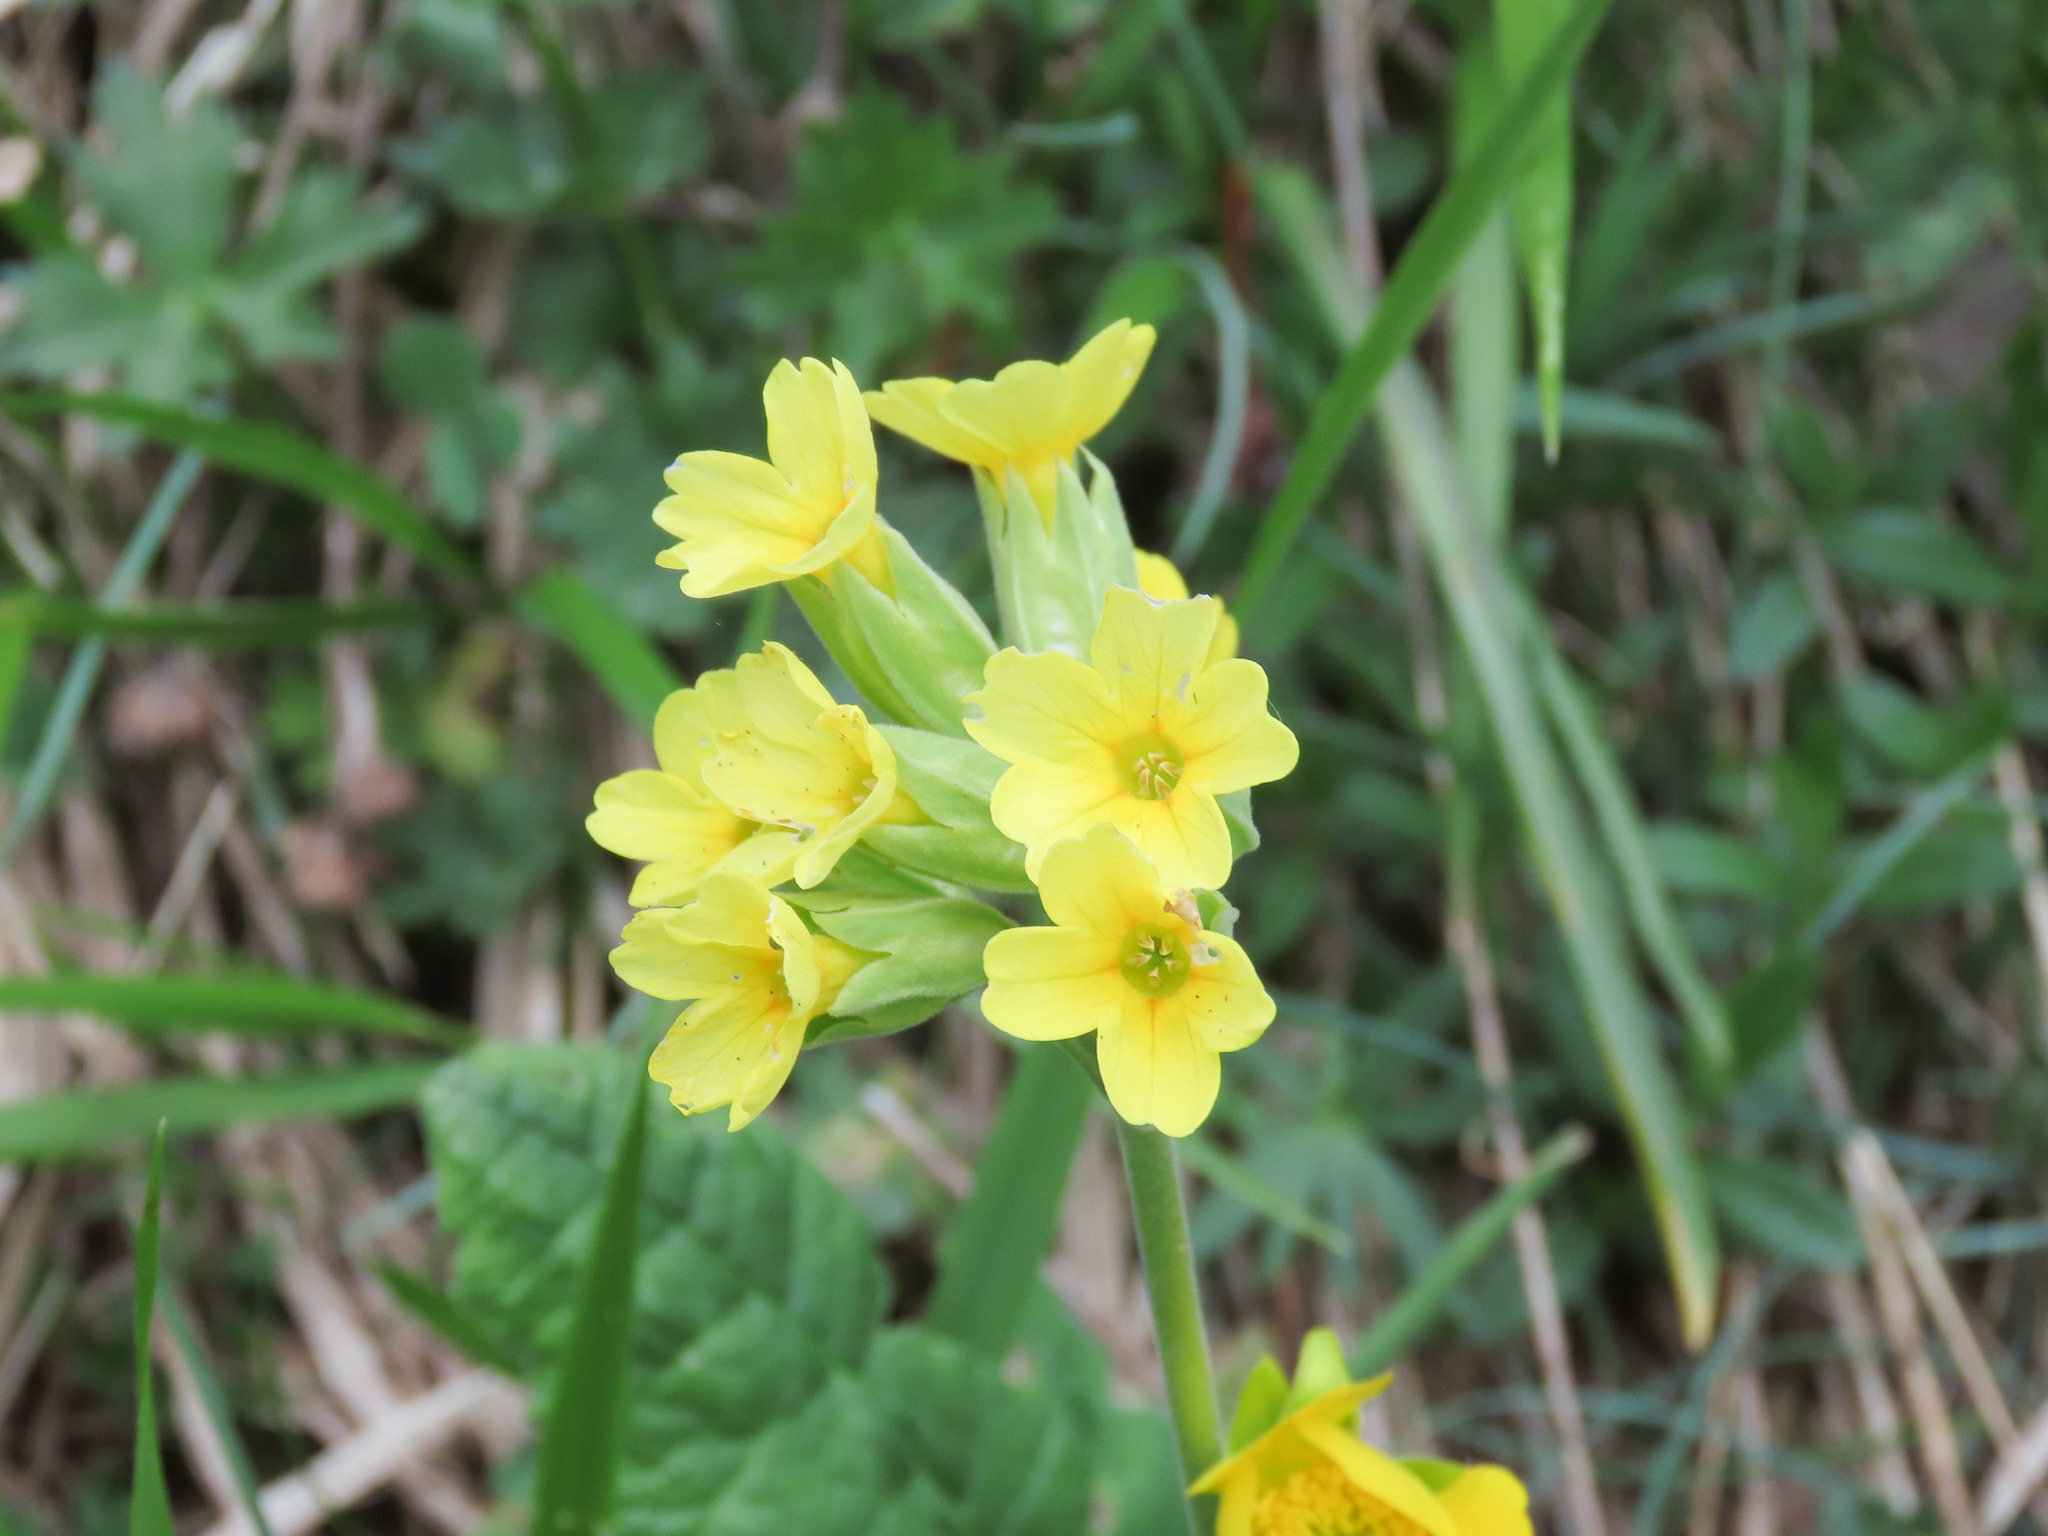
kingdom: Plantae
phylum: Tracheophyta
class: Magnoliopsida
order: Ericales
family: Primulaceae
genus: Primula
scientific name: Primula veris
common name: Cowslip
